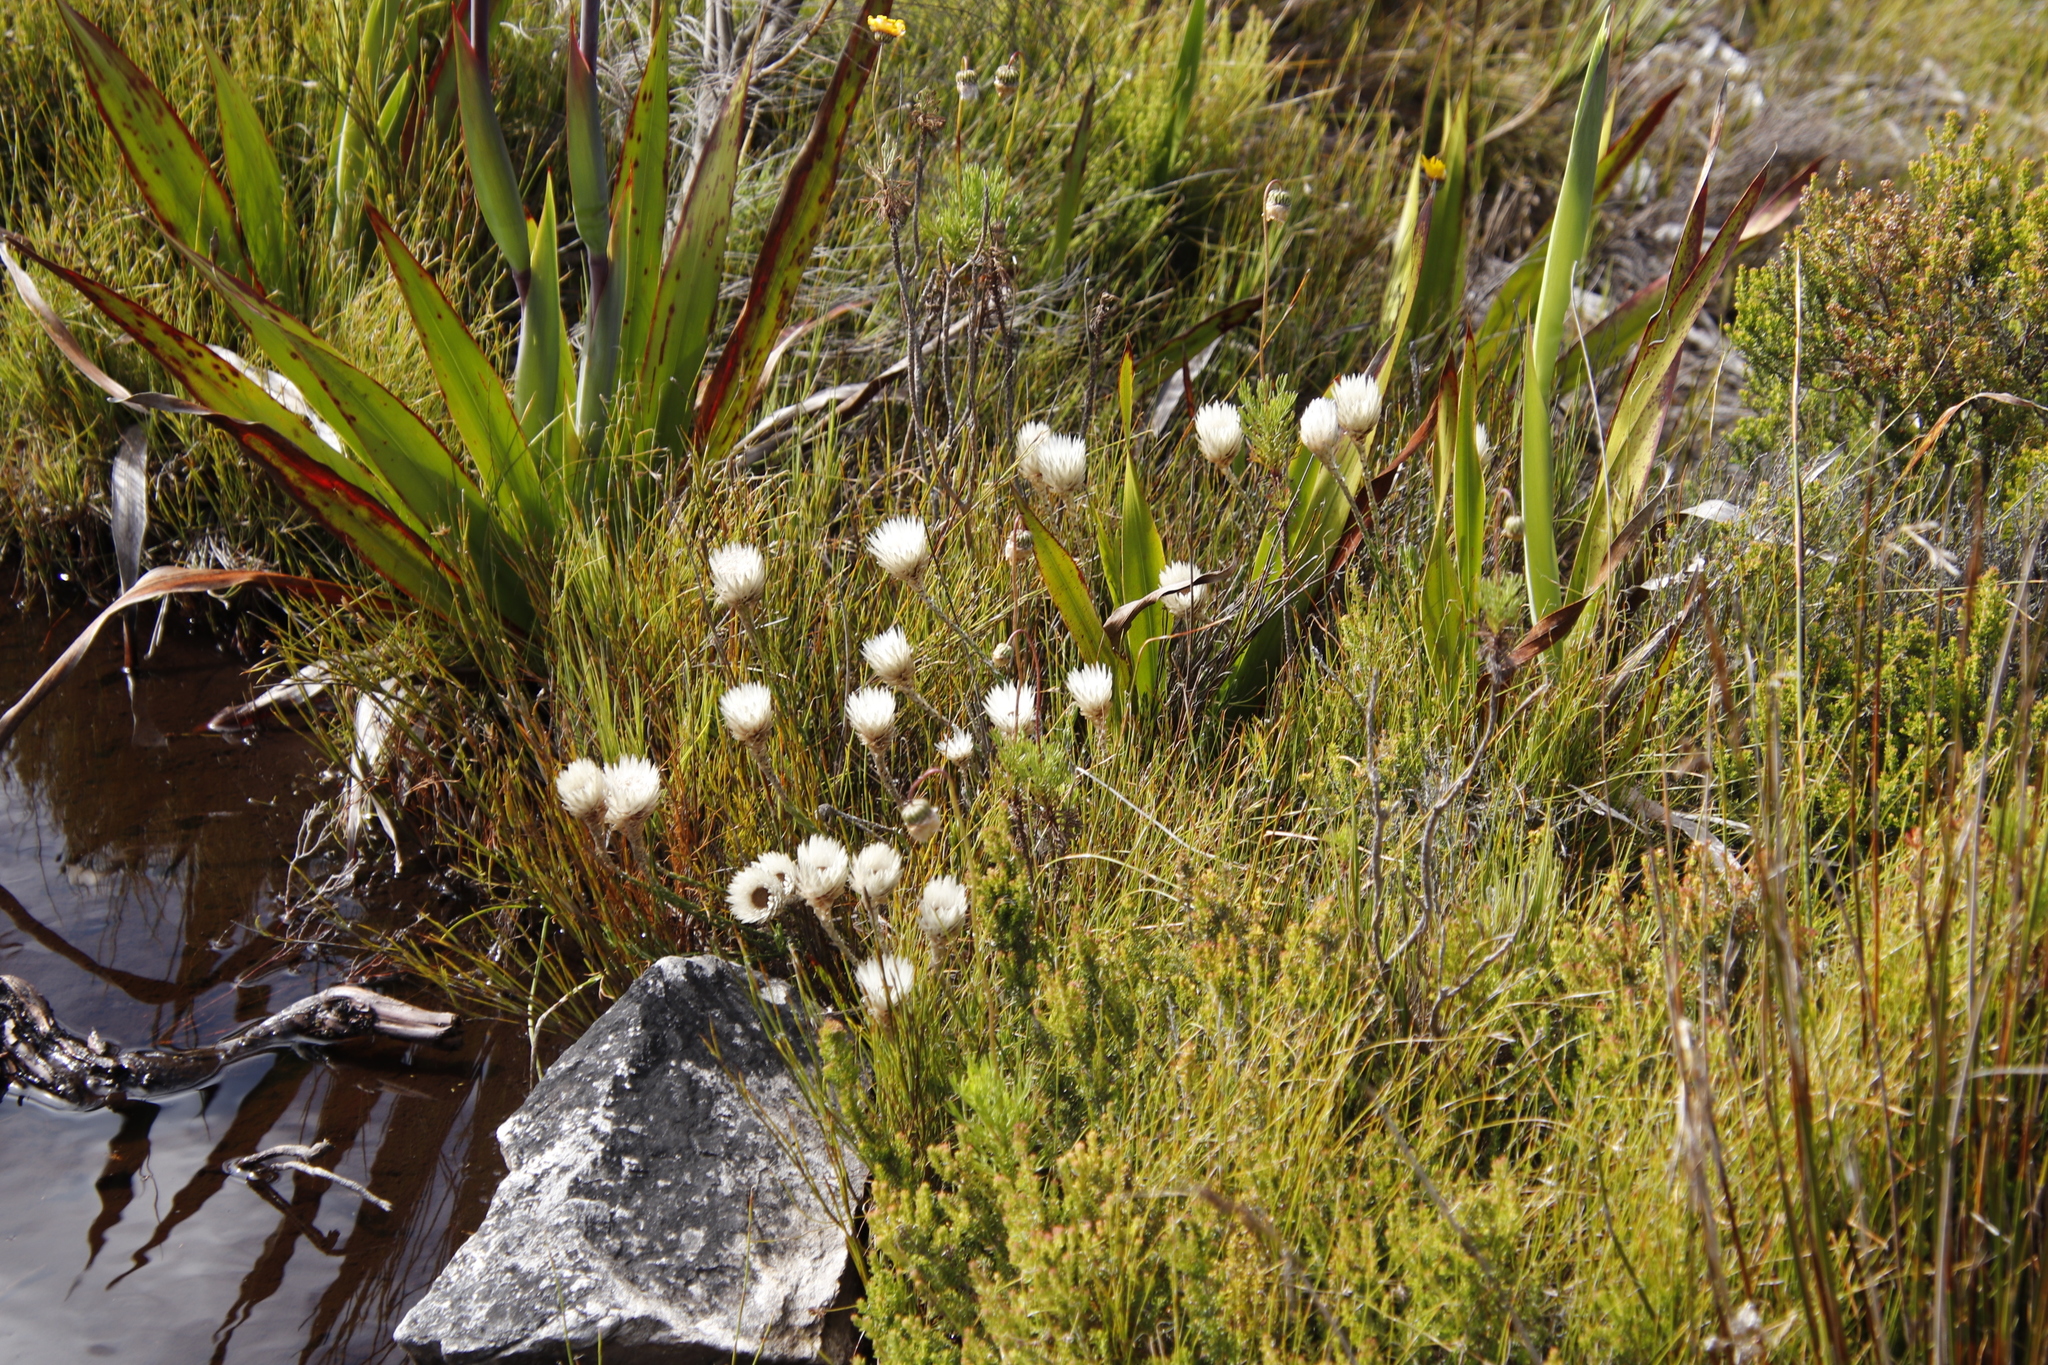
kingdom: Plantae
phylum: Tracheophyta
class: Magnoliopsida
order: Asterales
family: Asteraceae
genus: Edmondia
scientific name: Edmondia pinifolia
